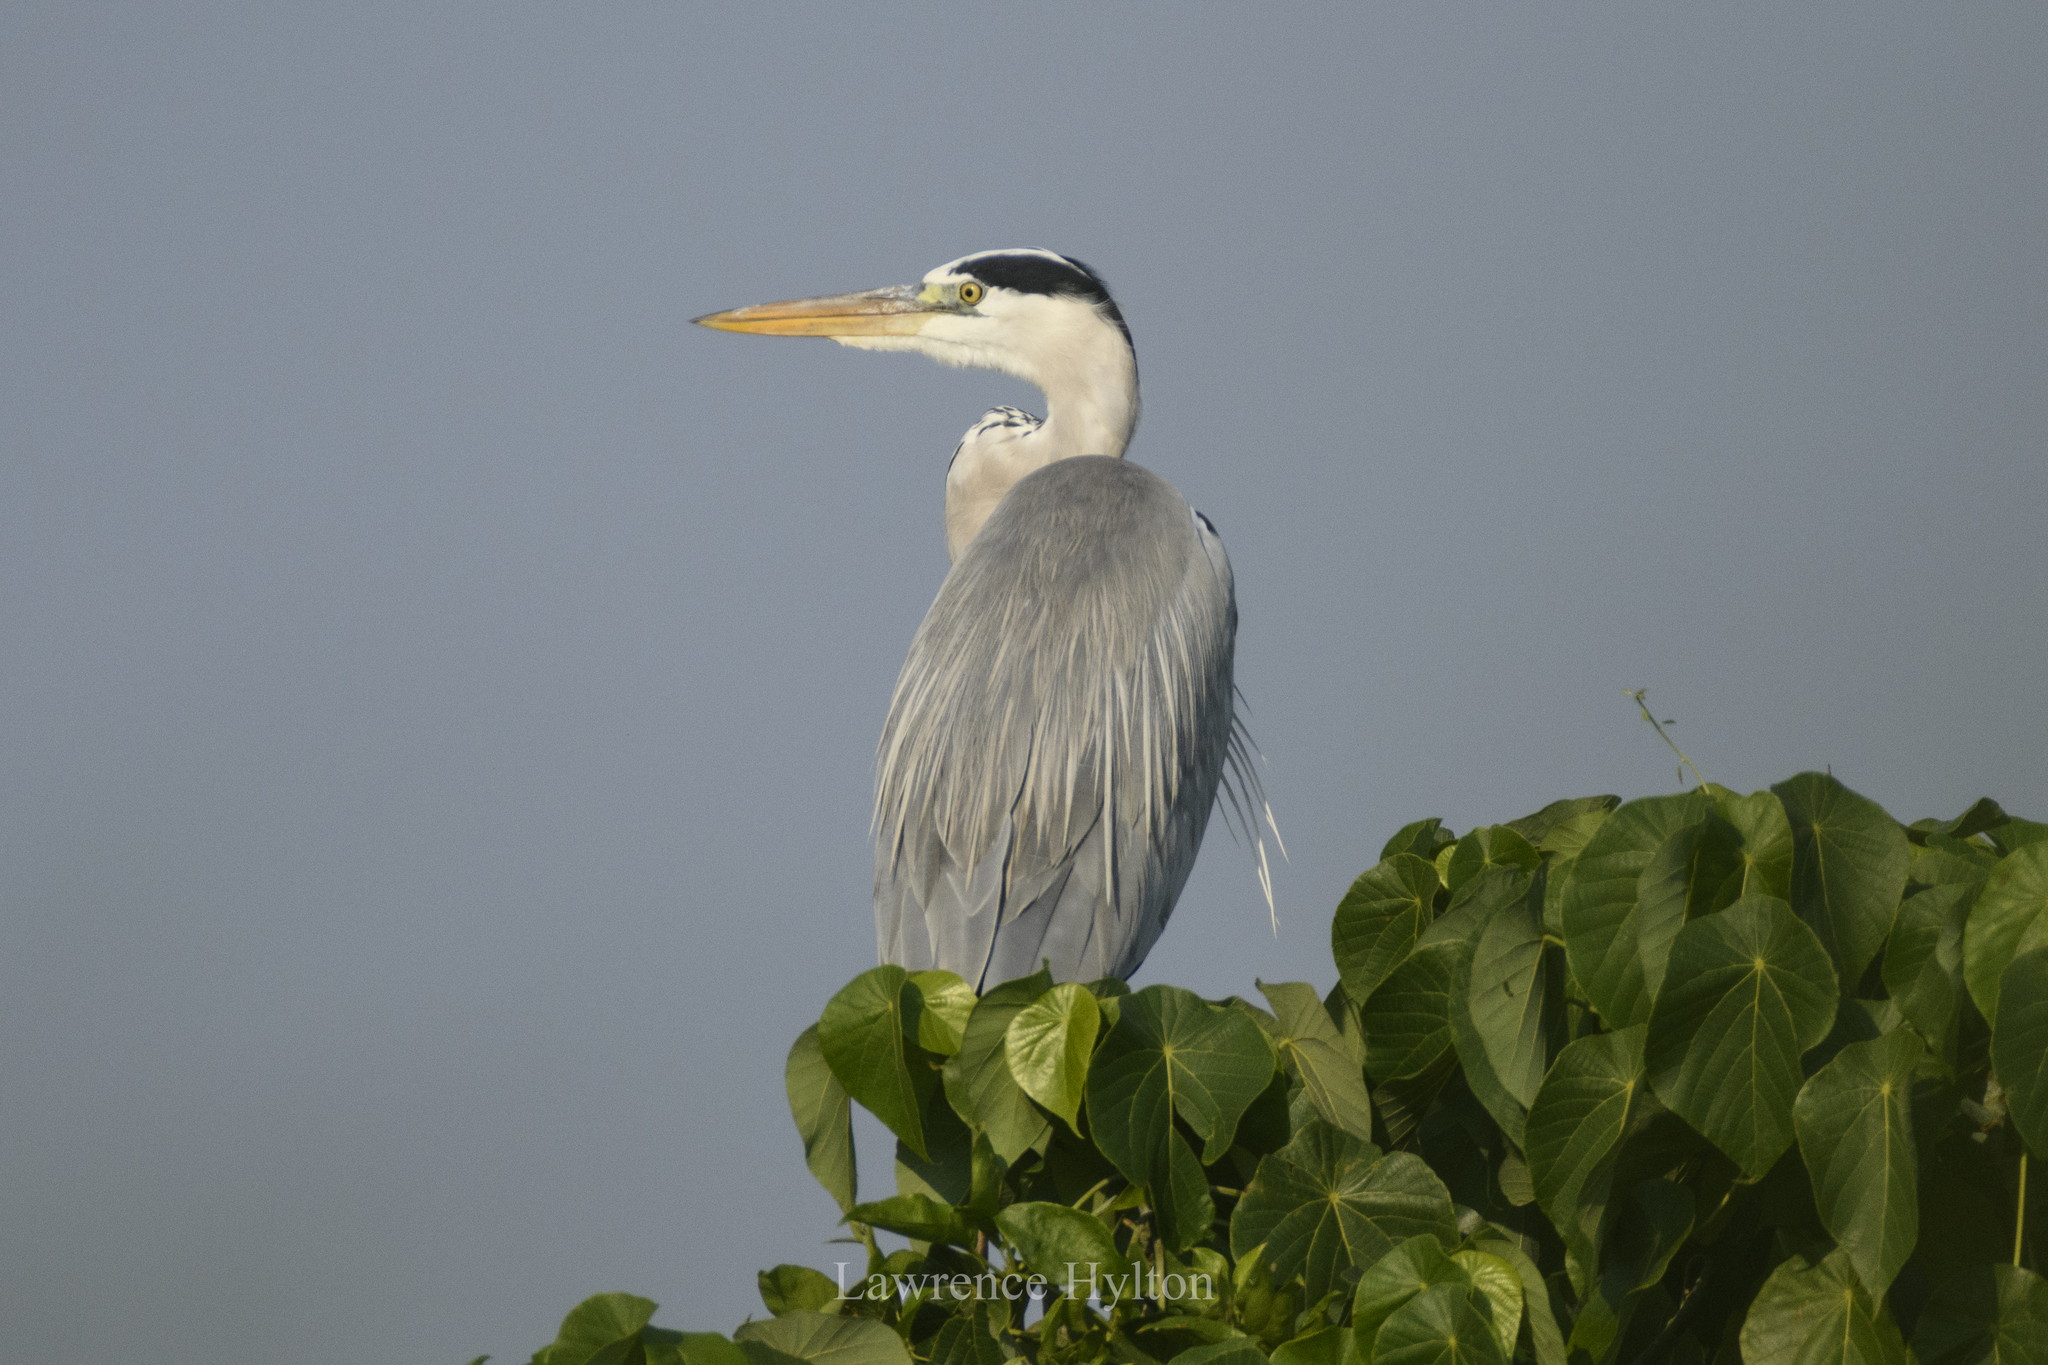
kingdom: Animalia
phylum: Chordata
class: Aves
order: Pelecaniformes
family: Ardeidae
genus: Ardea
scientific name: Ardea cinerea
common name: Grey heron
